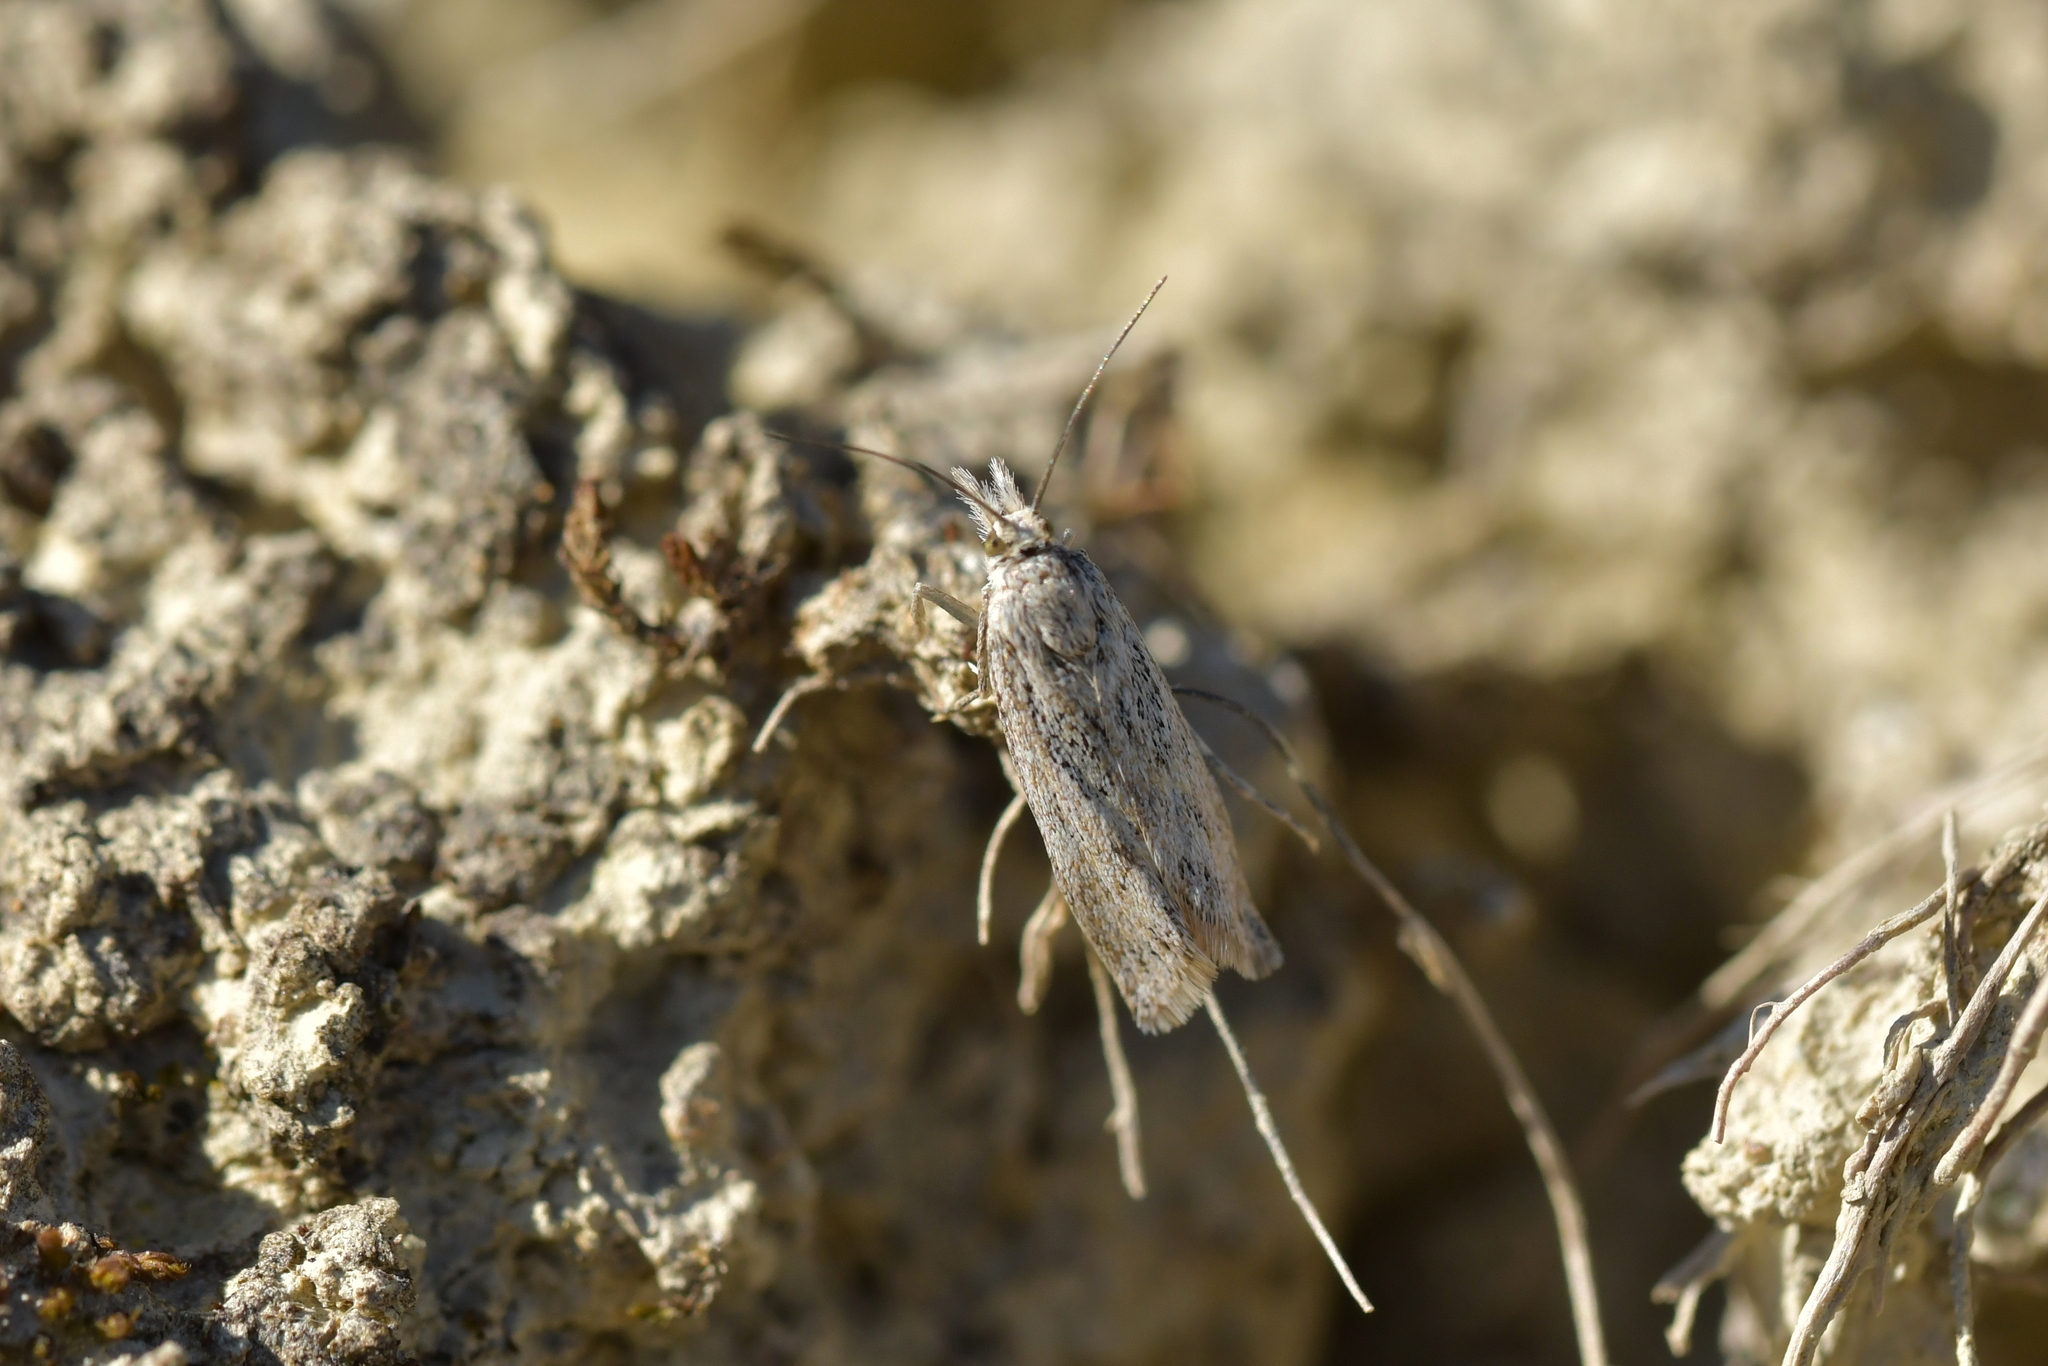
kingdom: Animalia
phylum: Arthropoda
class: Insecta
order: Lepidoptera
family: Crambidae
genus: Orocrambus
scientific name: Orocrambus corruptus
